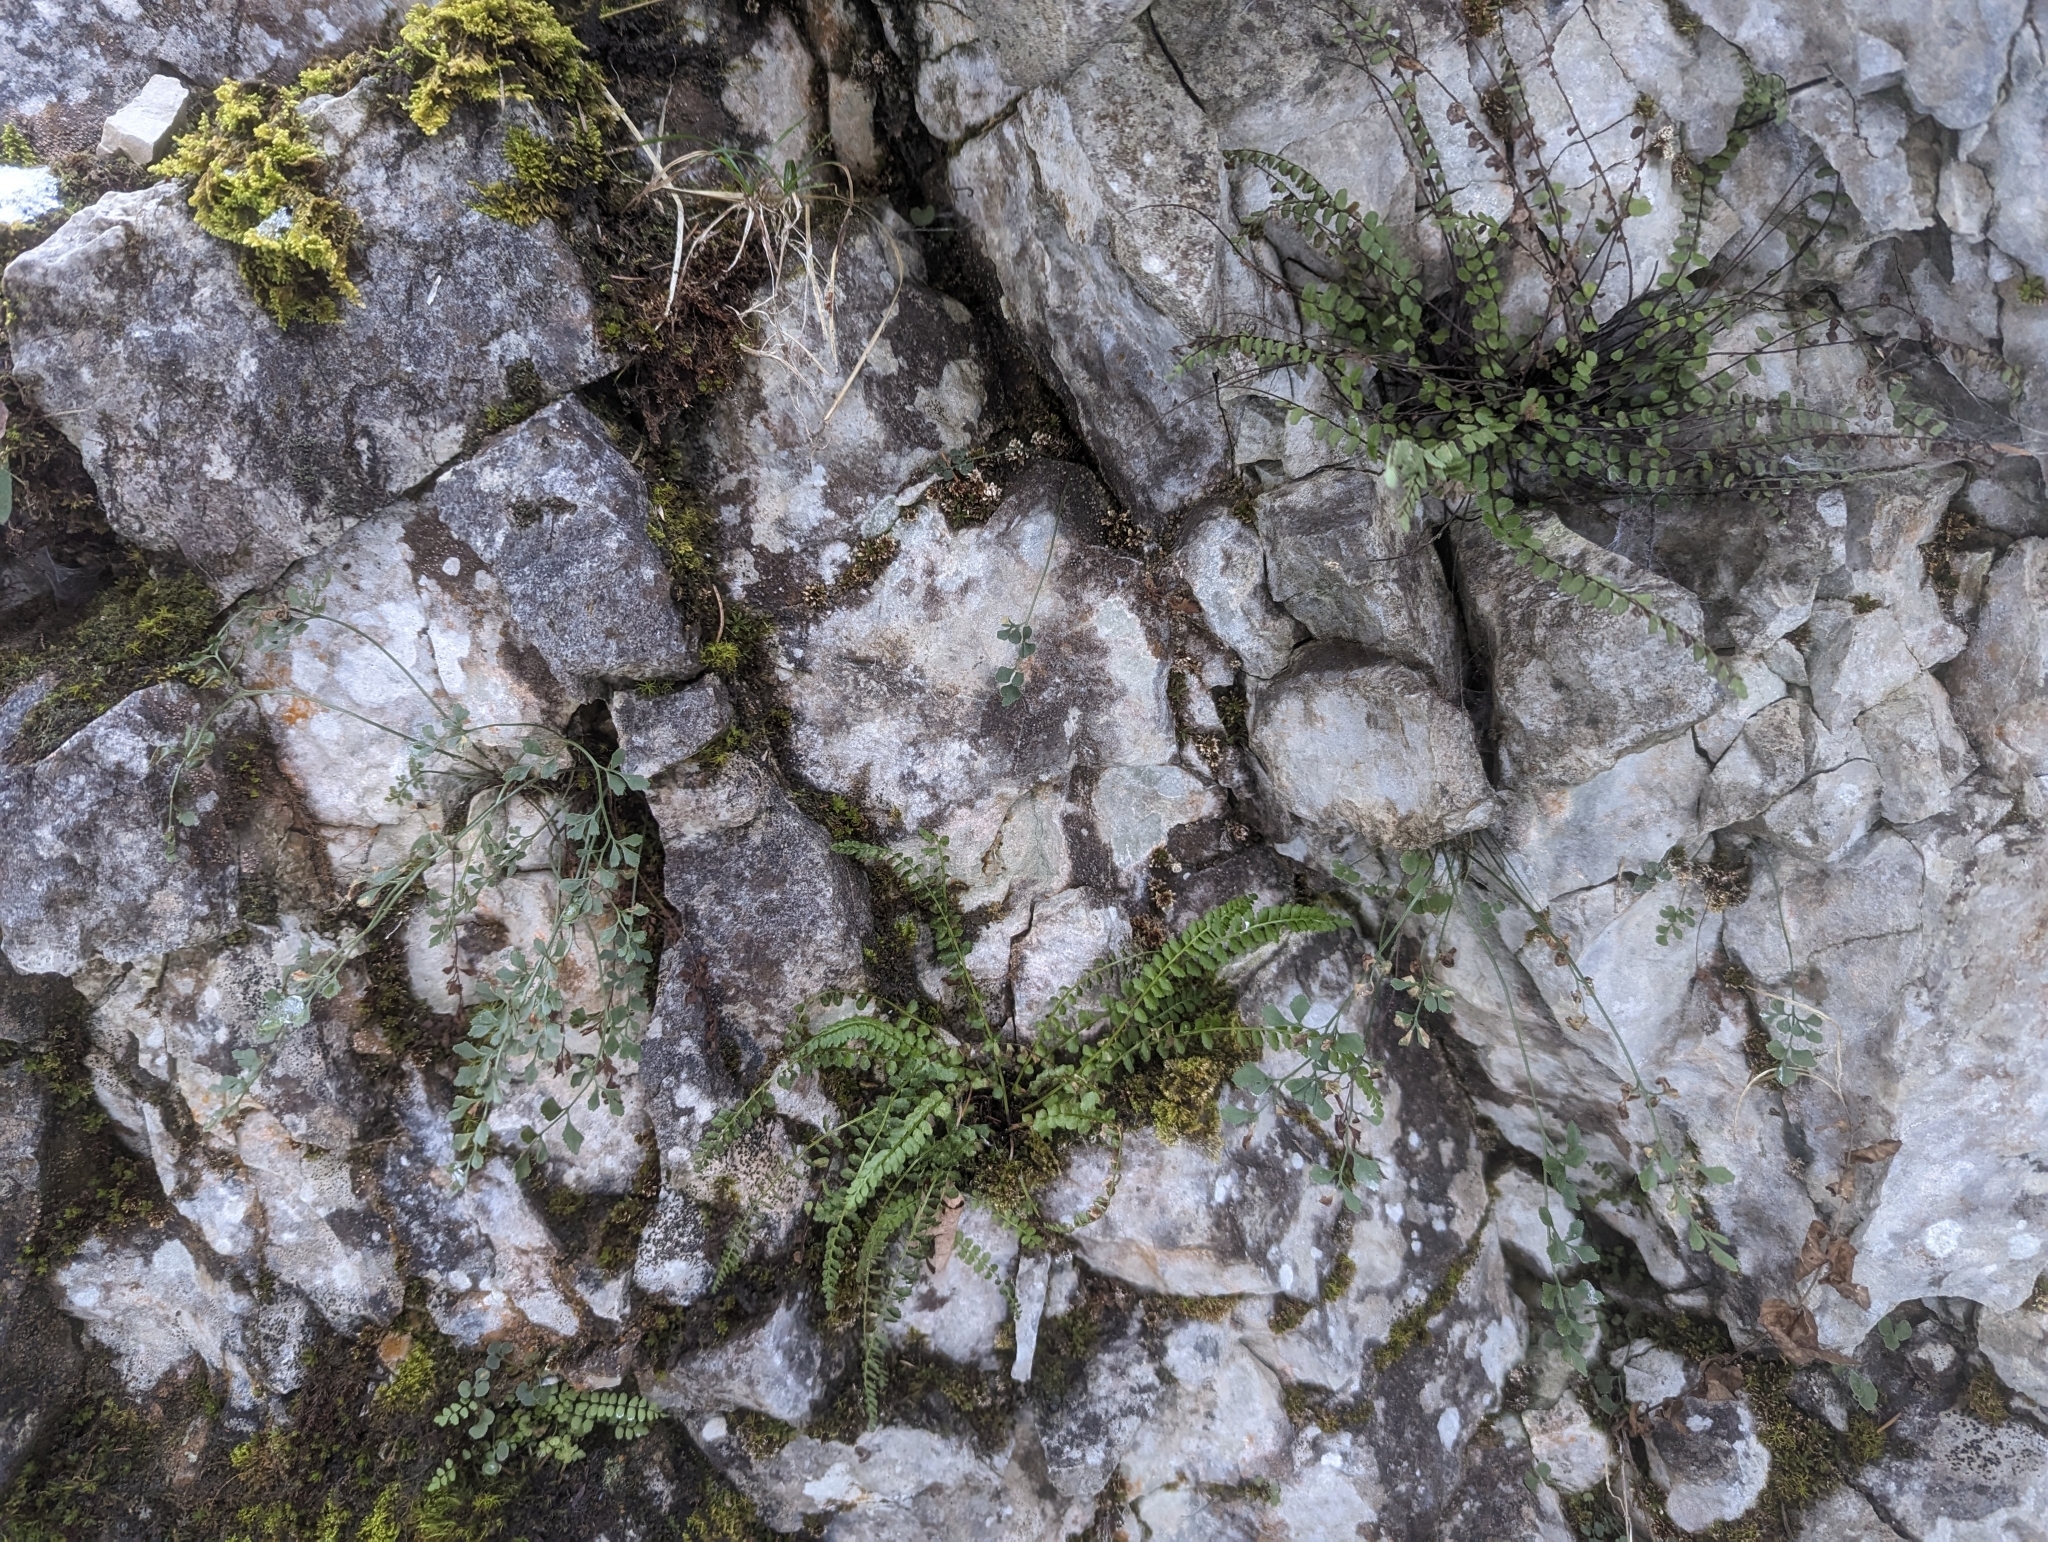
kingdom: Plantae
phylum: Tracheophyta
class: Polypodiopsida
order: Polypodiales
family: Aspleniaceae
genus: Asplenium
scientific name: Asplenium viride
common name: Green spleenwort
